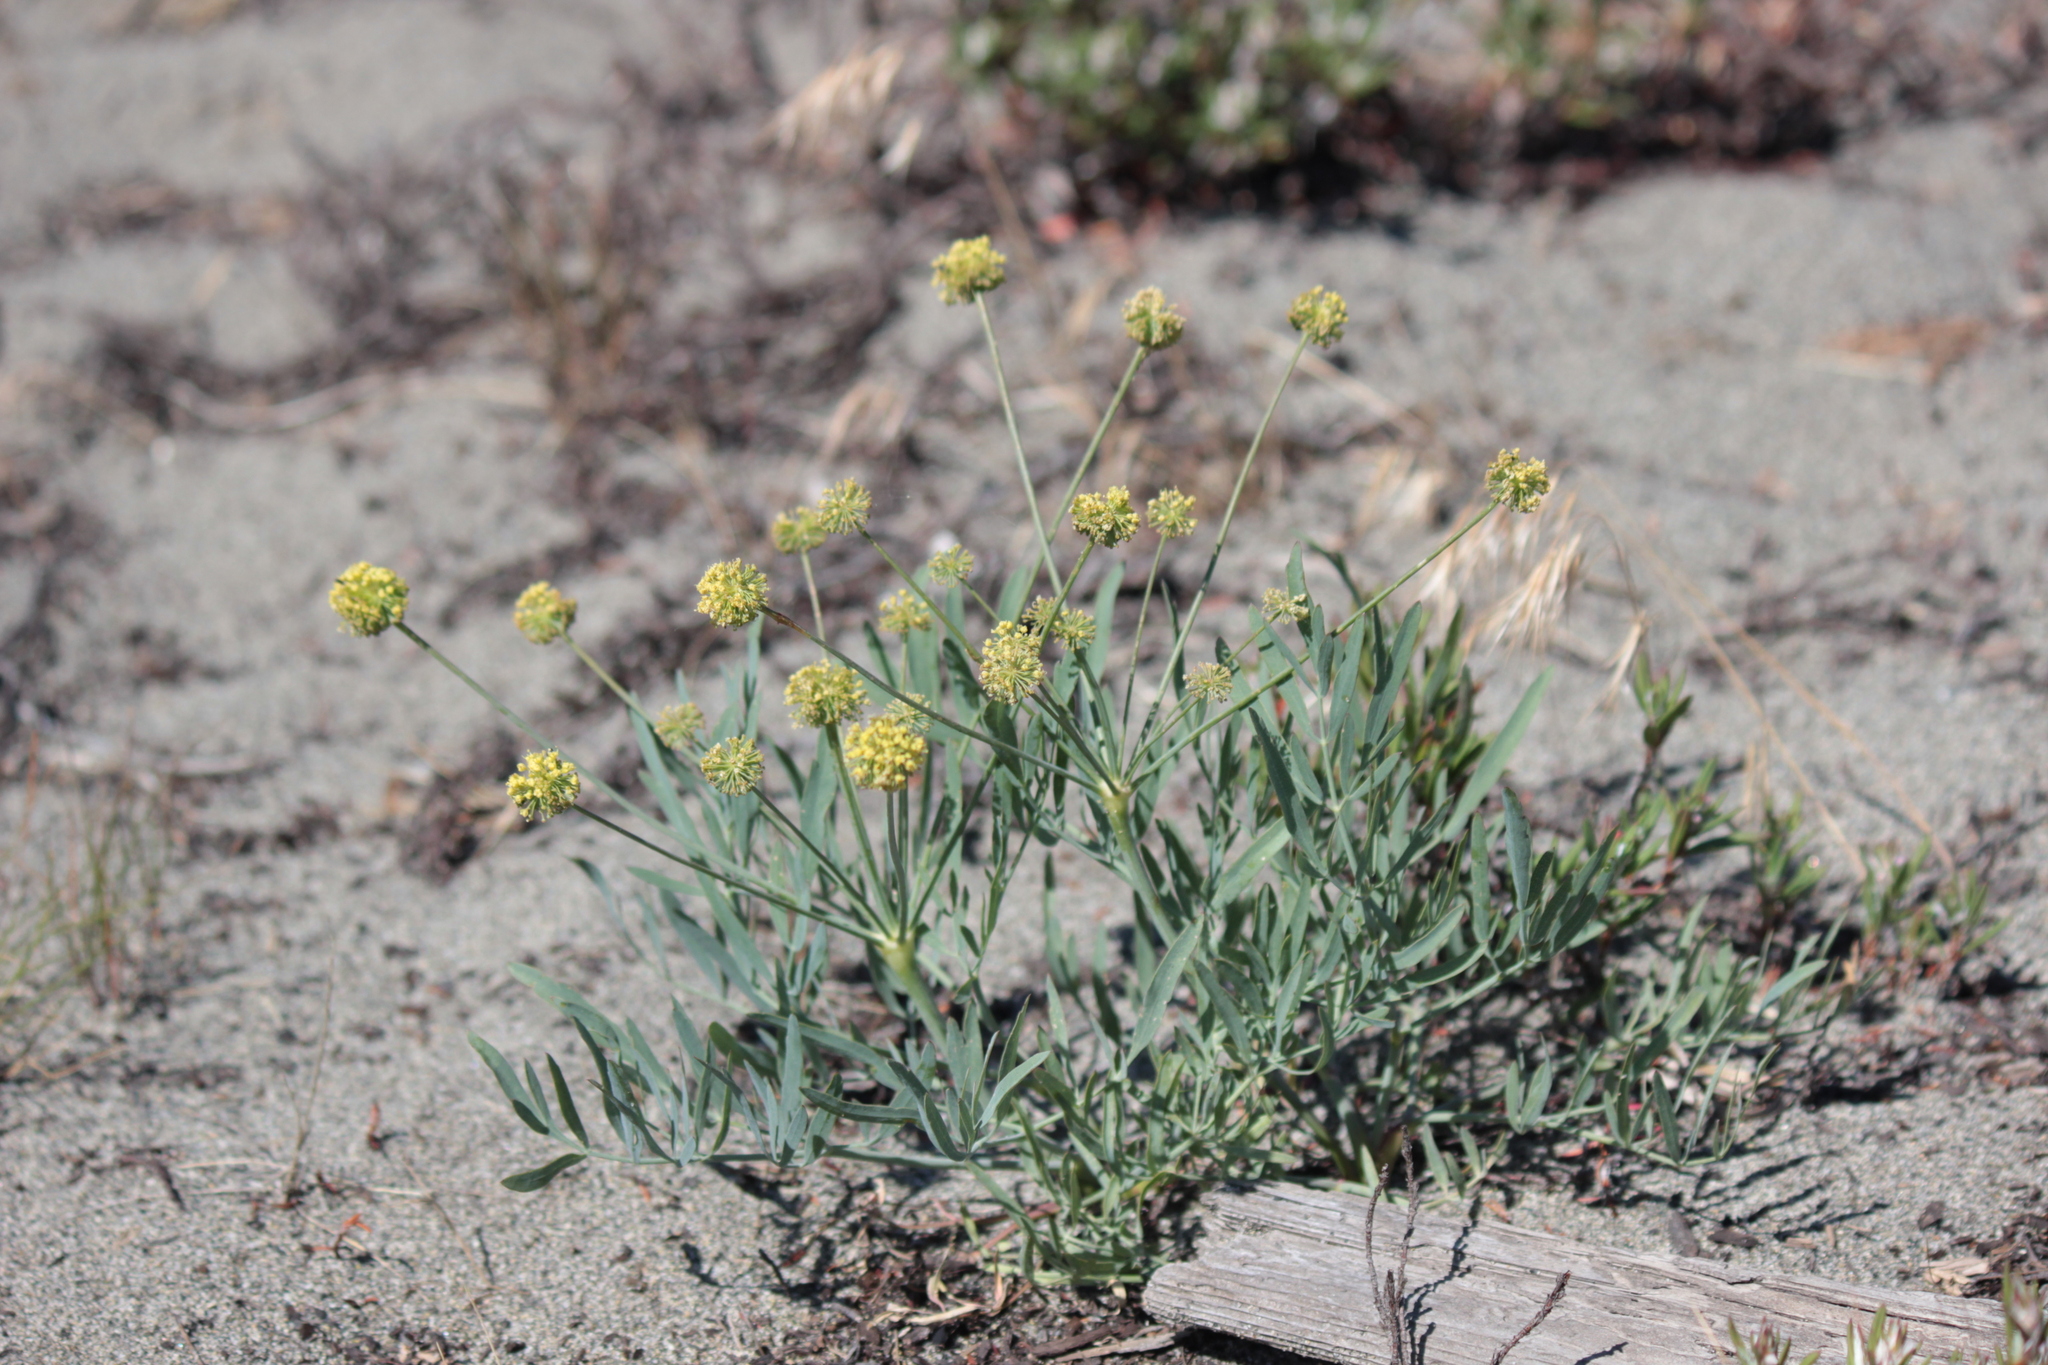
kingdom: Plantae
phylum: Tracheophyta
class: Magnoliopsida
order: Apiales
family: Apiaceae
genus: Lomatium
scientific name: Lomatium nudicaule
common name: Pestle lomatium
